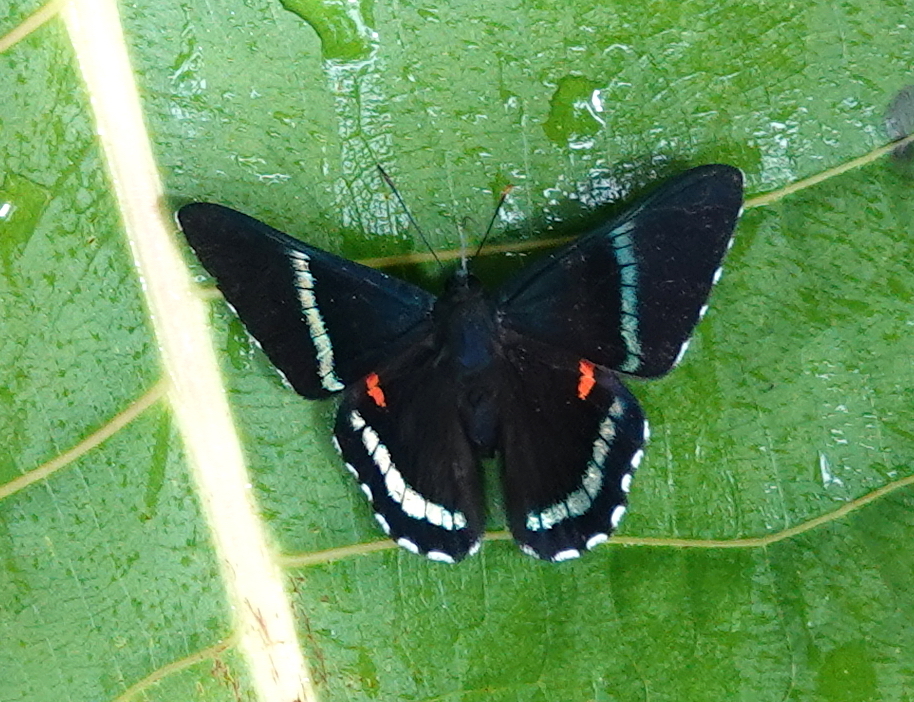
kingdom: Animalia
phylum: Arthropoda
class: Insecta
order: Lepidoptera
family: Lycaenidae
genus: Necyria
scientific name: Necyria bellona
